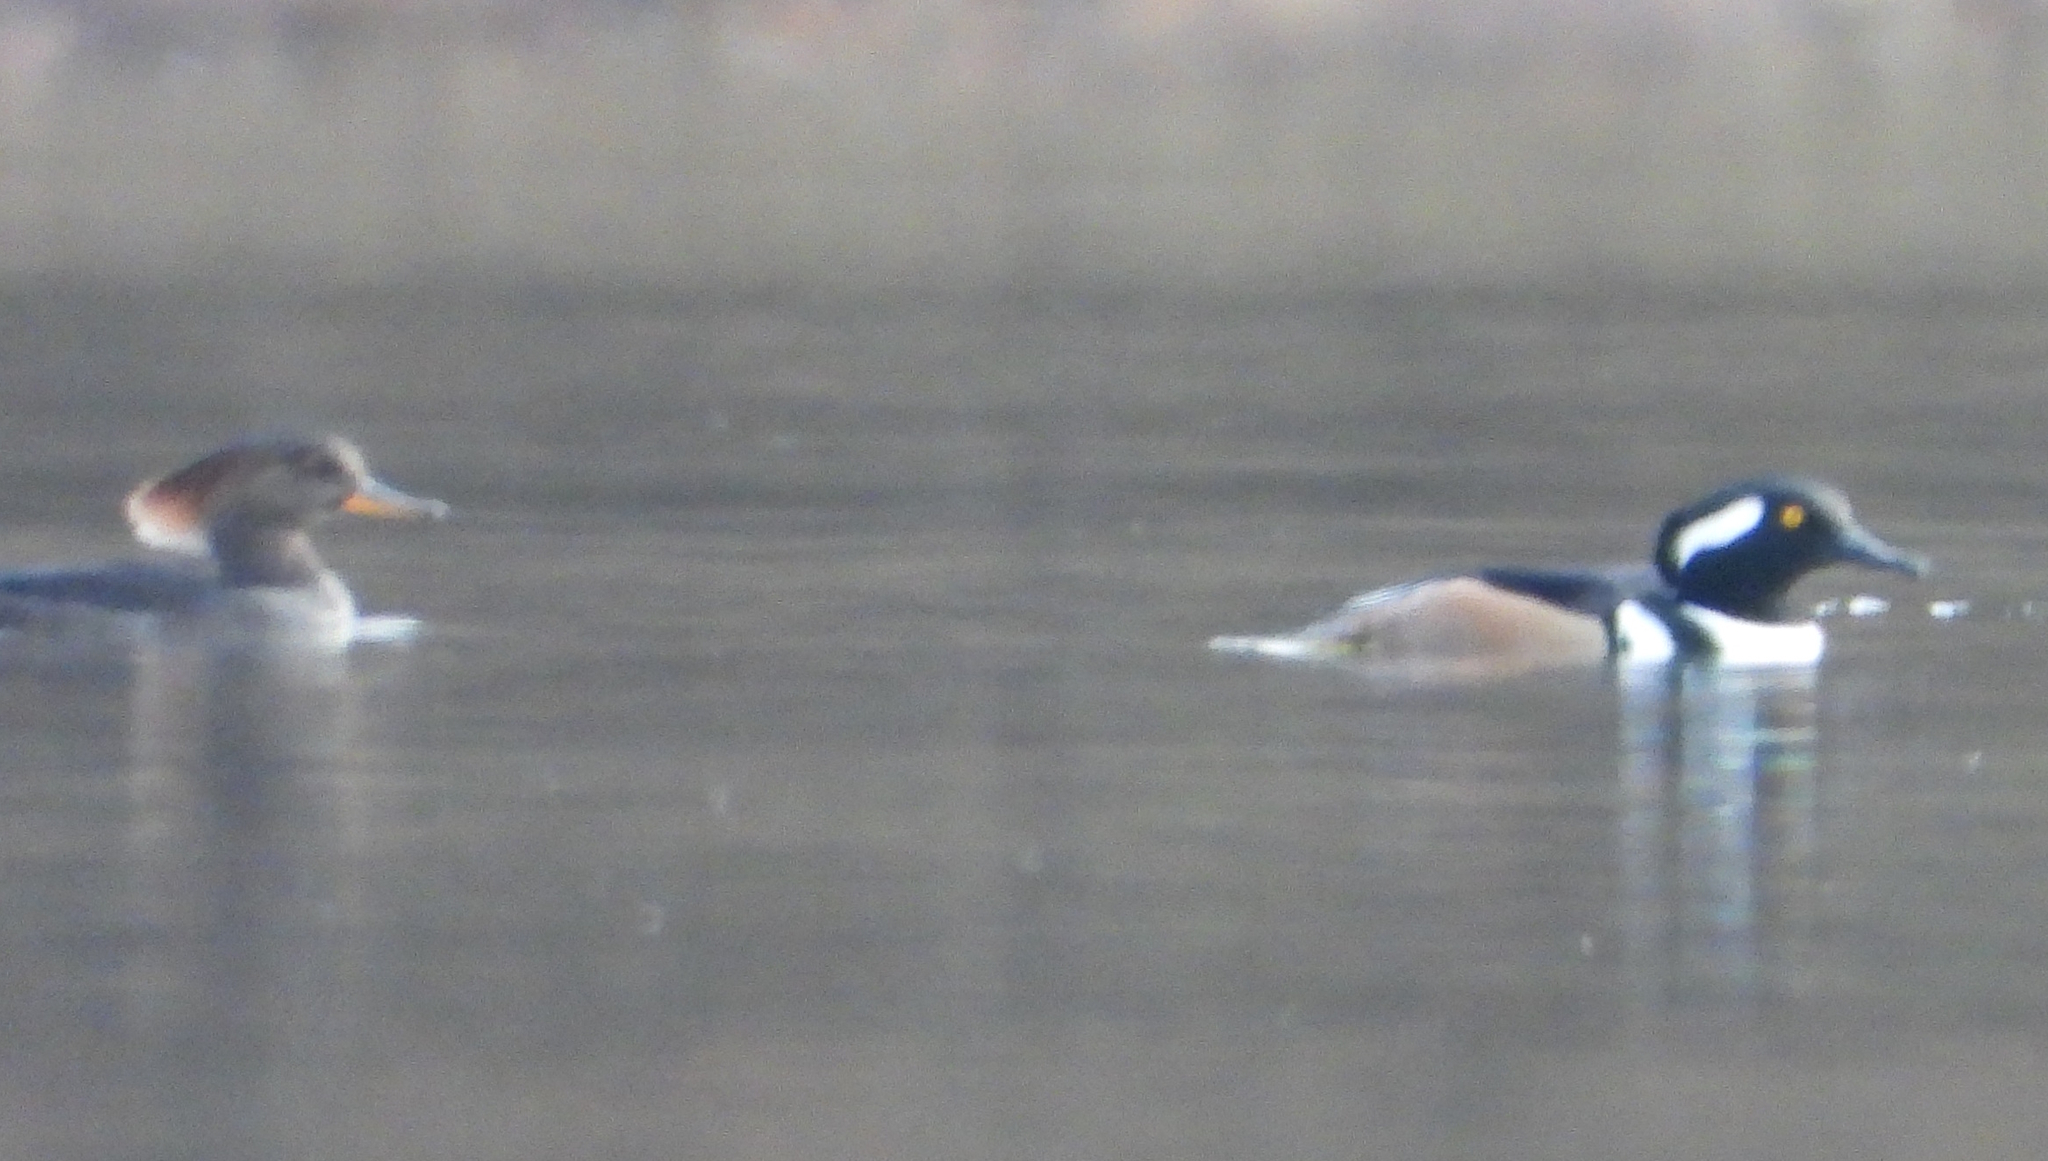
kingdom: Animalia
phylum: Chordata
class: Aves
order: Anseriformes
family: Anatidae
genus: Lophodytes
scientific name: Lophodytes cucullatus
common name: Hooded merganser
